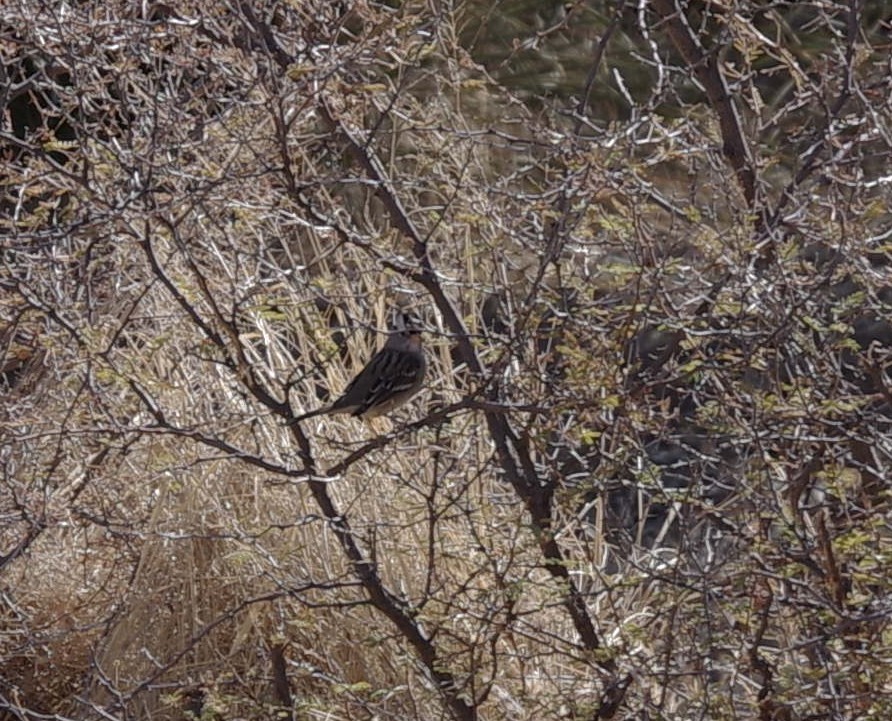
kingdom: Animalia
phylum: Chordata
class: Aves
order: Passeriformes
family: Passerellidae
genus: Zonotrichia
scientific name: Zonotrichia leucophrys
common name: White-crowned sparrow
